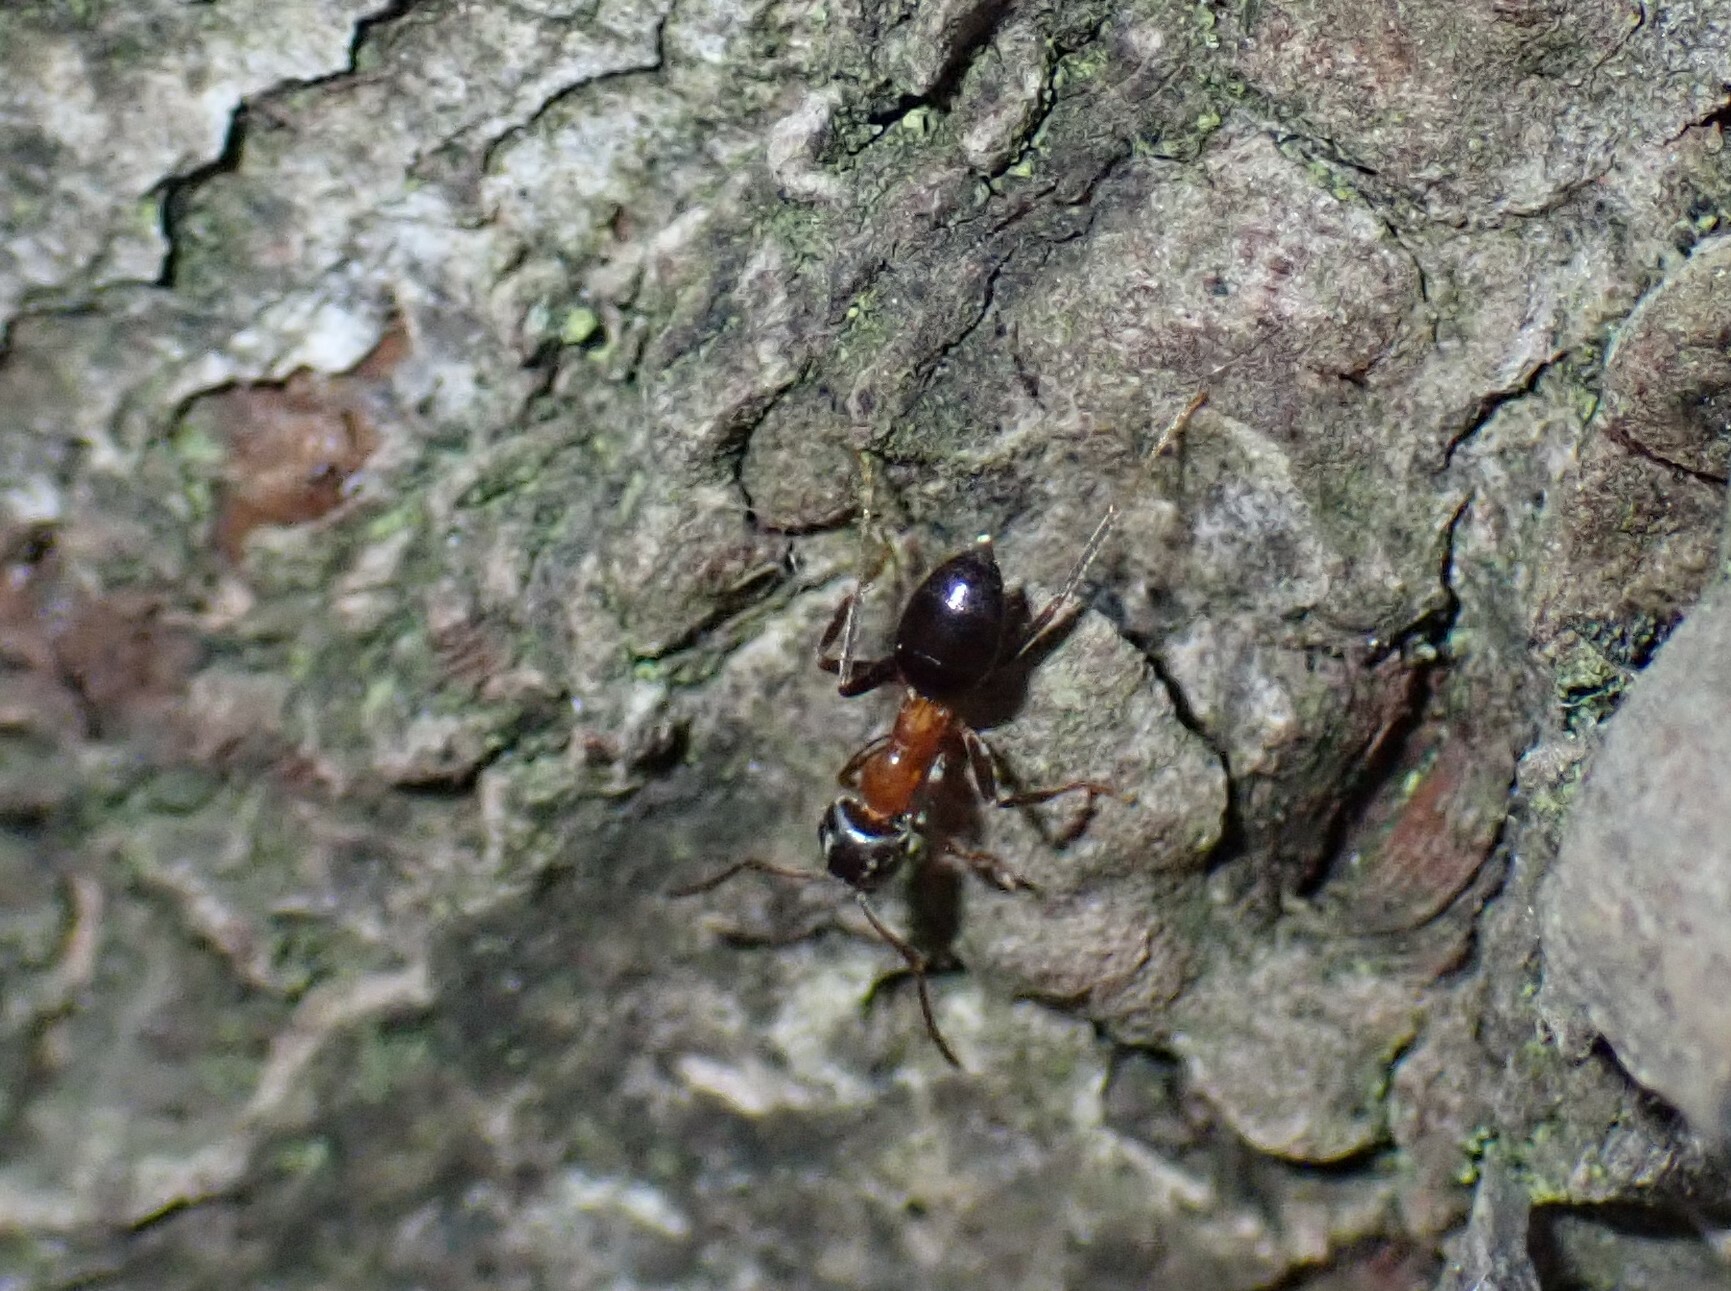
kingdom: Animalia
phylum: Arthropoda
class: Insecta
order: Hymenoptera
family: Formicidae
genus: Lasius
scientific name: Lasius emarginatus
